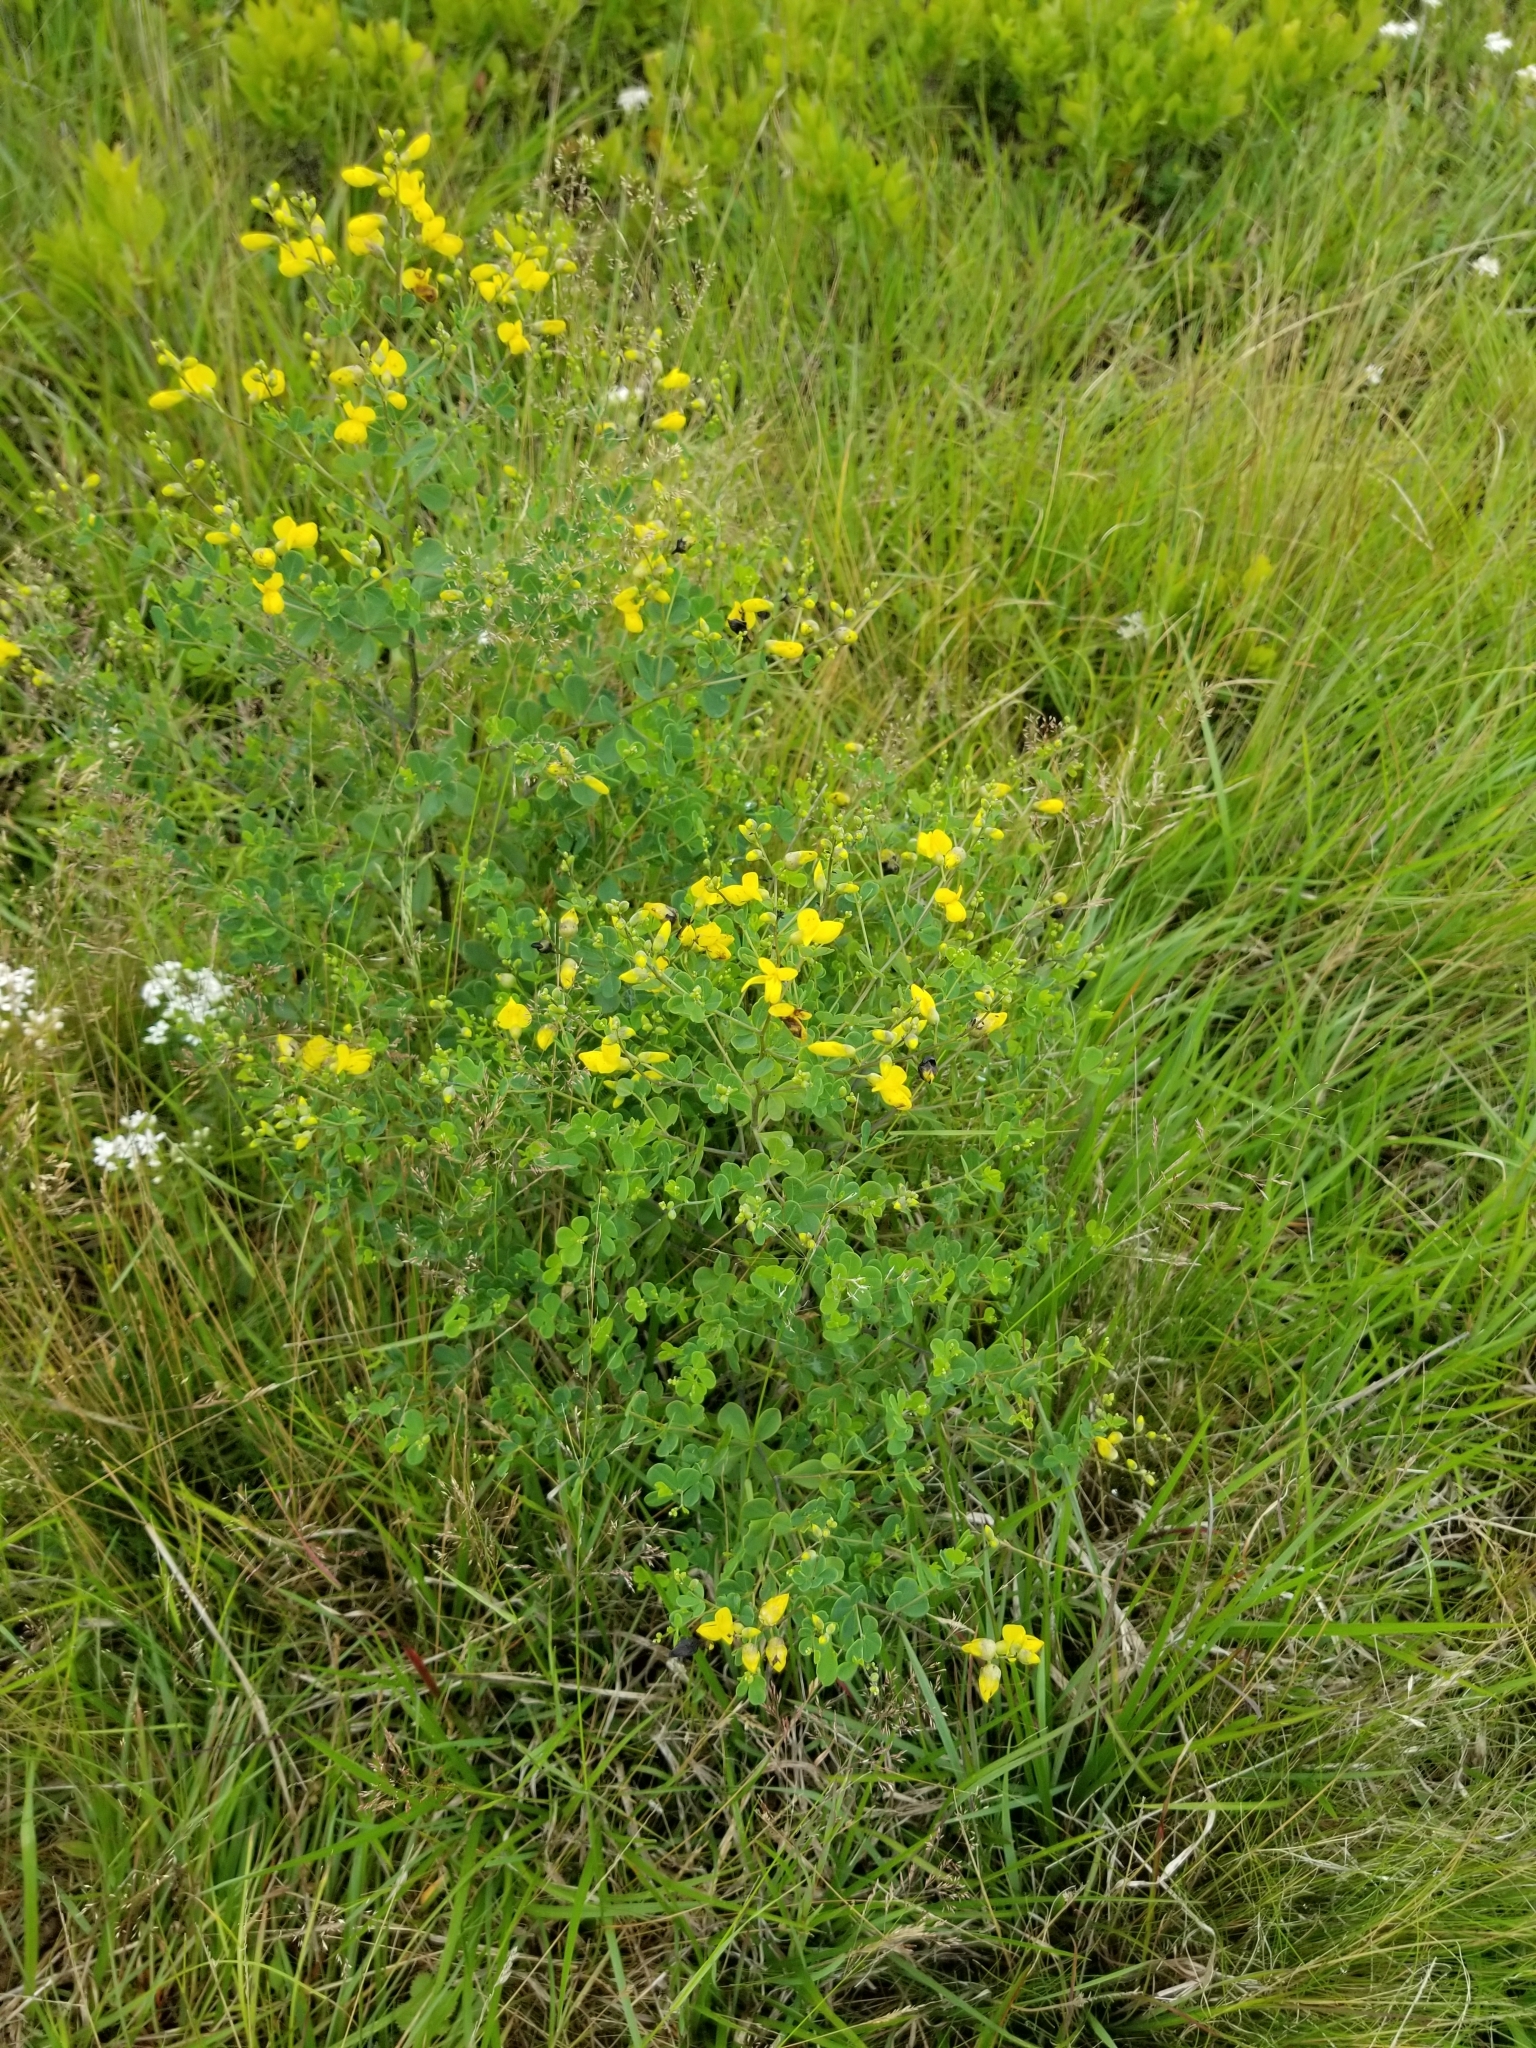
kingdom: Plantae
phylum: Tracheophyta
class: Magnoliopsida
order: Fabales
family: Fabaceae
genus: Baptisia
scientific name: Baptisia tinctoria
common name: Wild indigo
